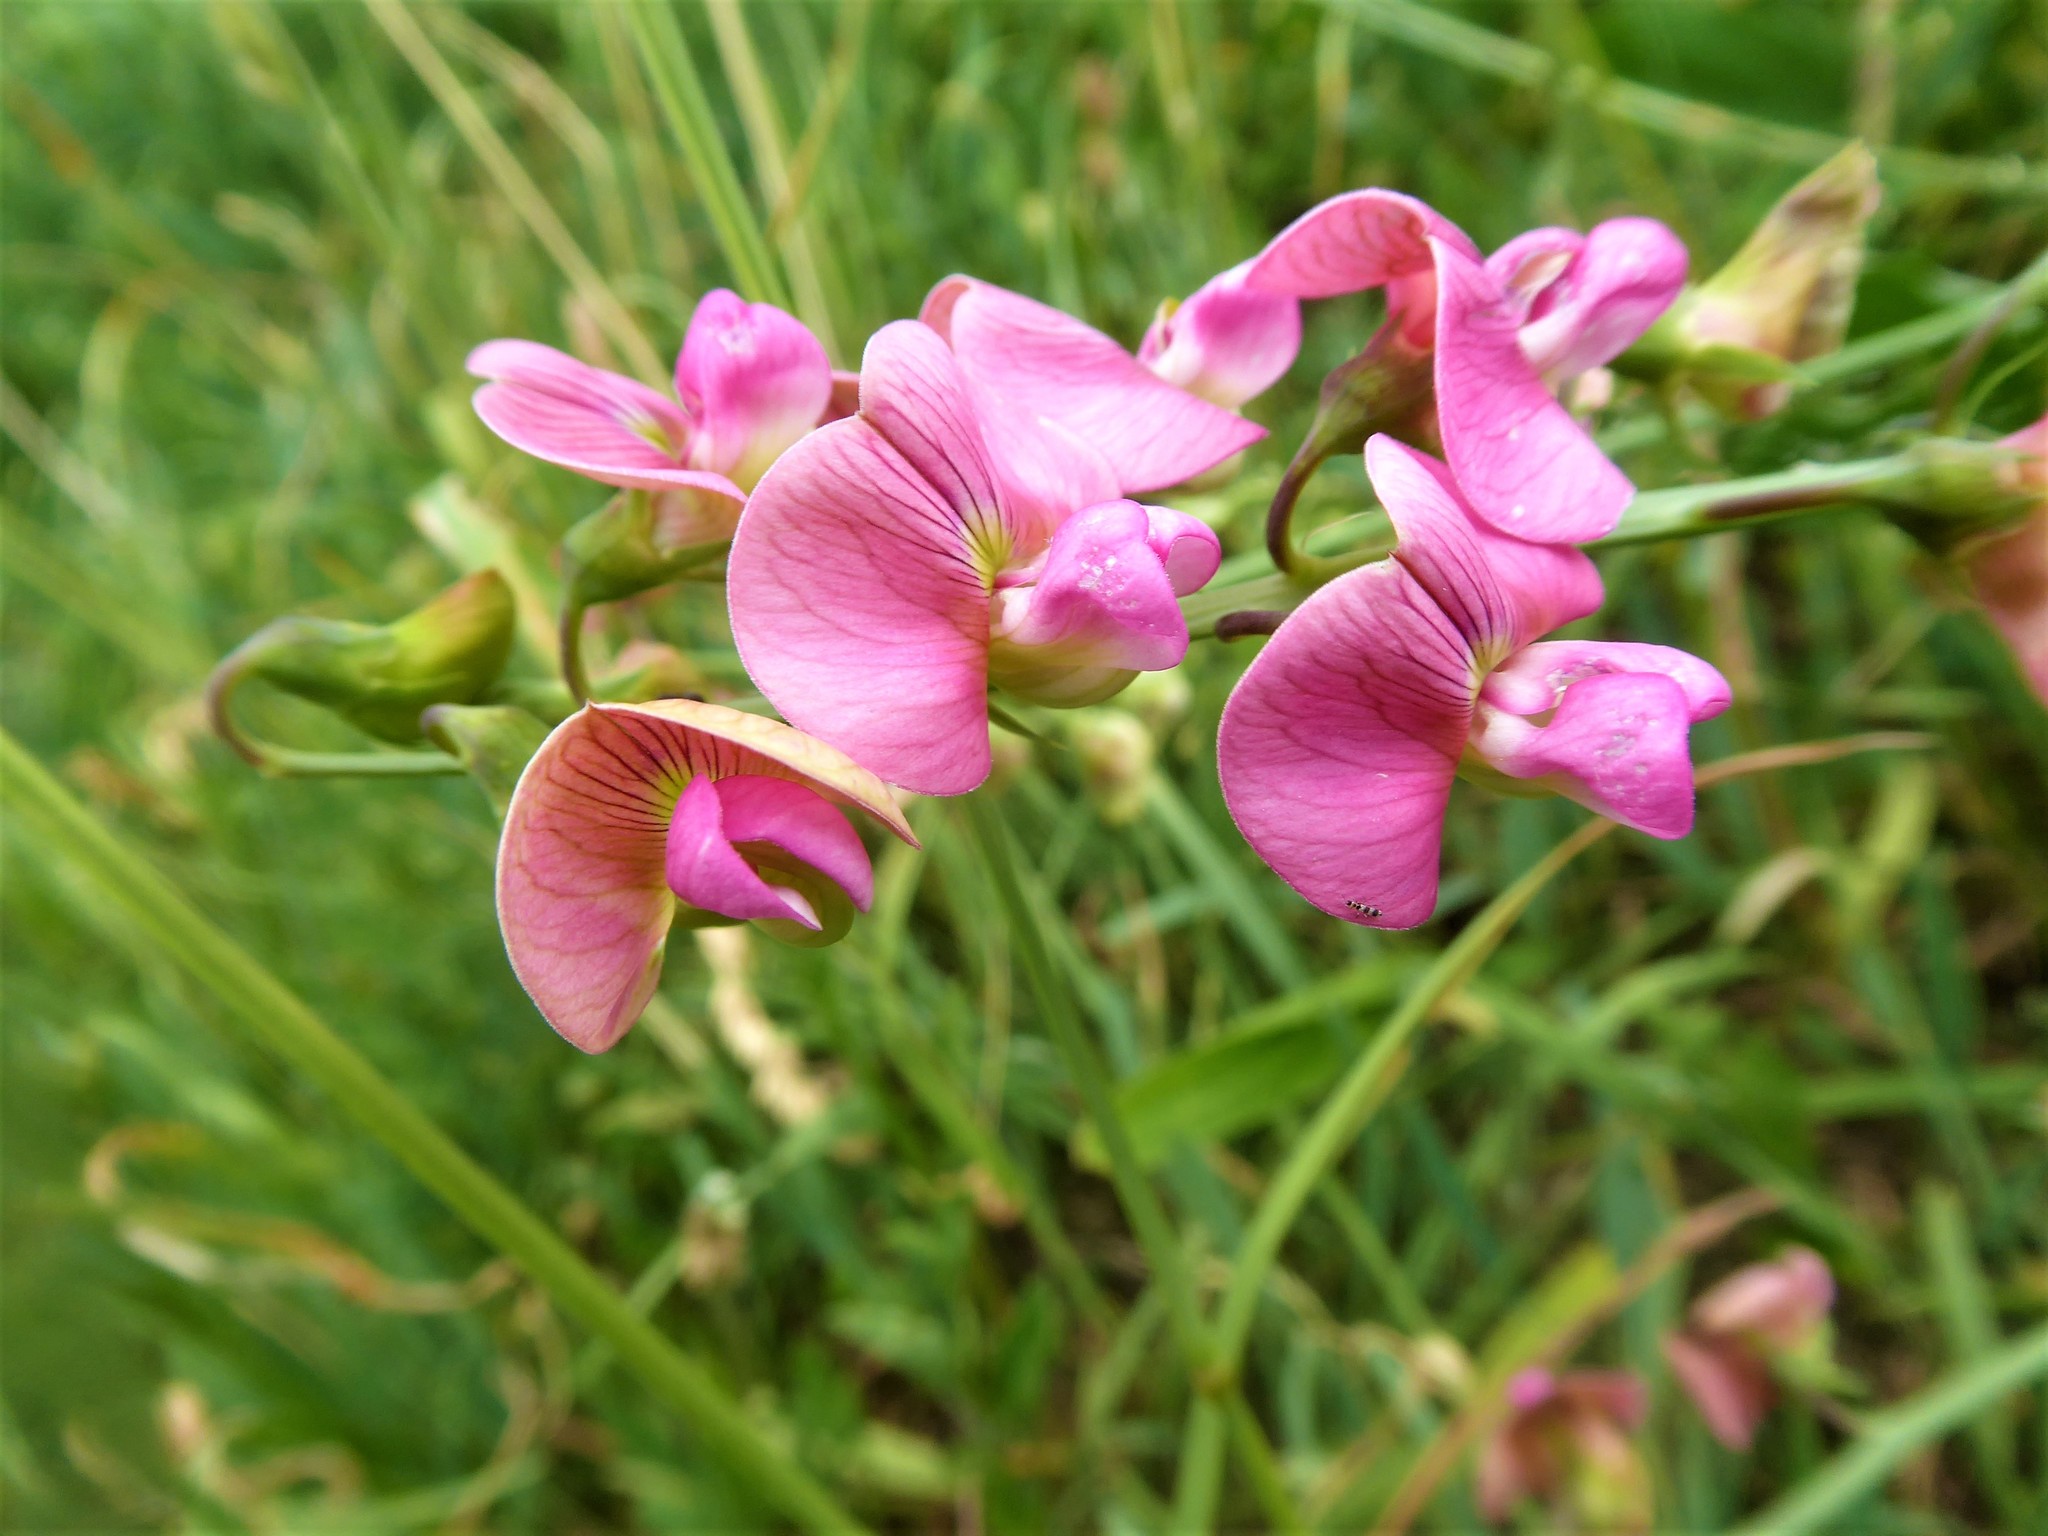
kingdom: Plantae
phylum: Tracheophyta
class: Magnoliopsida
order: Fabales
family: Fabaceae
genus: Lathyrus
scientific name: Lathyrus latifolius
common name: Perennial pea
